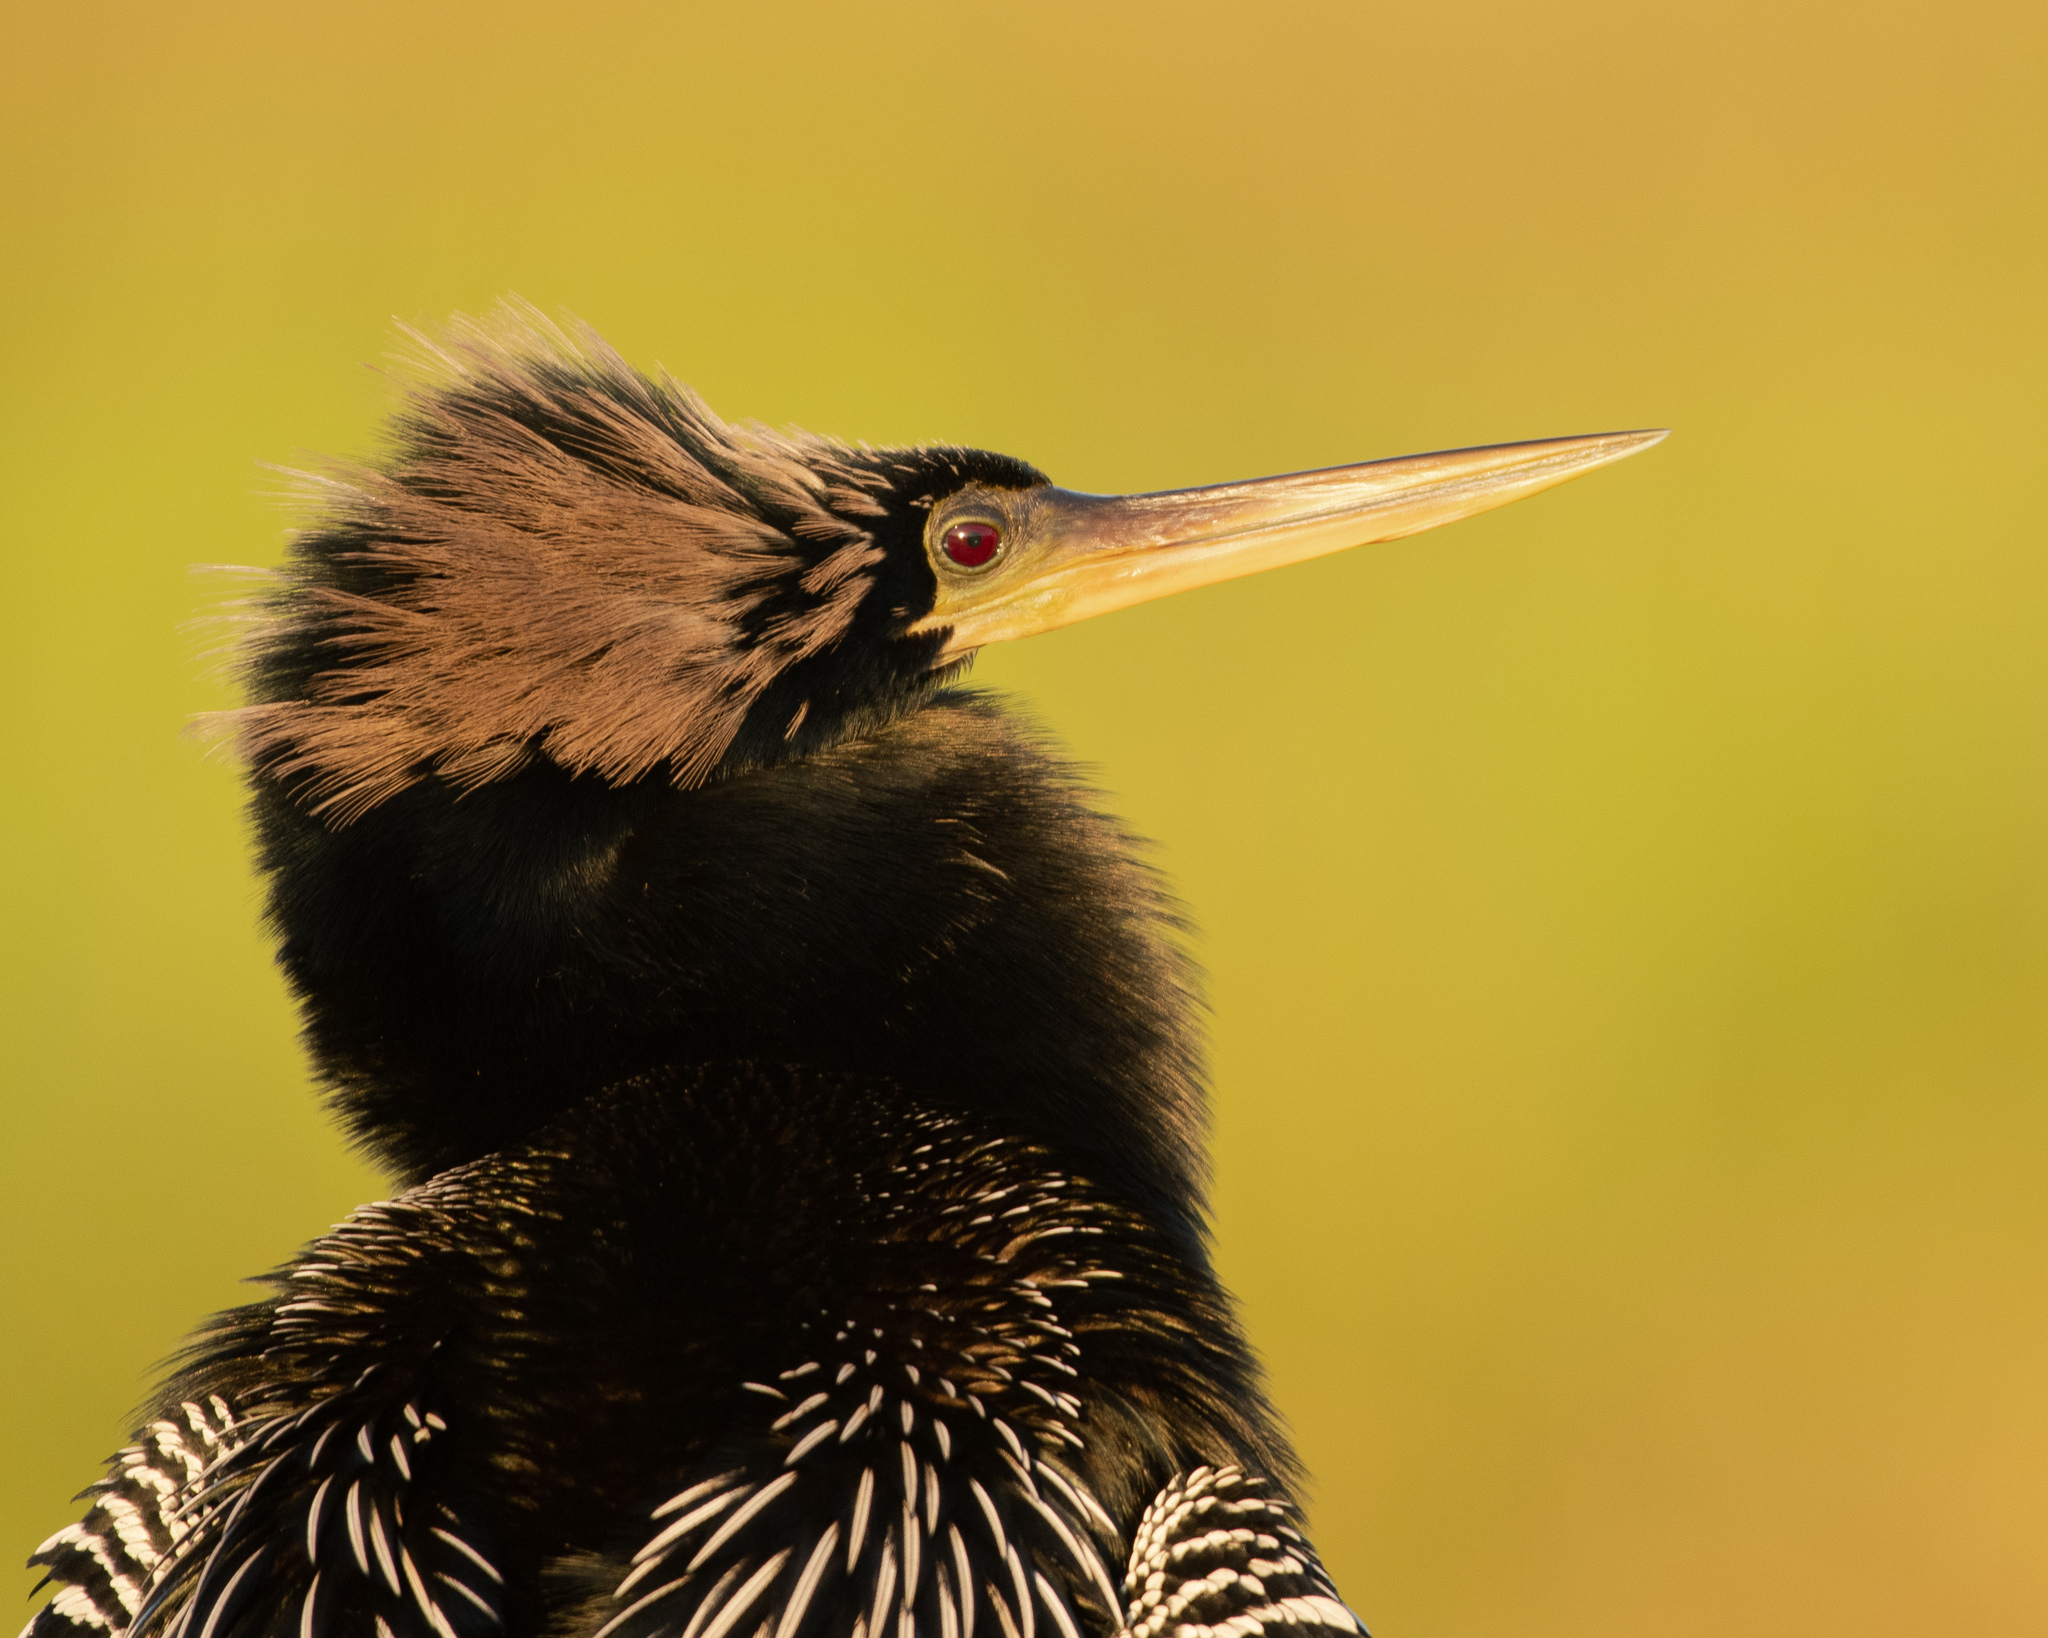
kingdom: Animalia
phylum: Chordata
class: Aves
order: Suliformes
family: Anhingidae
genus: Anhinga
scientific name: Anhinga anhinga
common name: Anhinga
